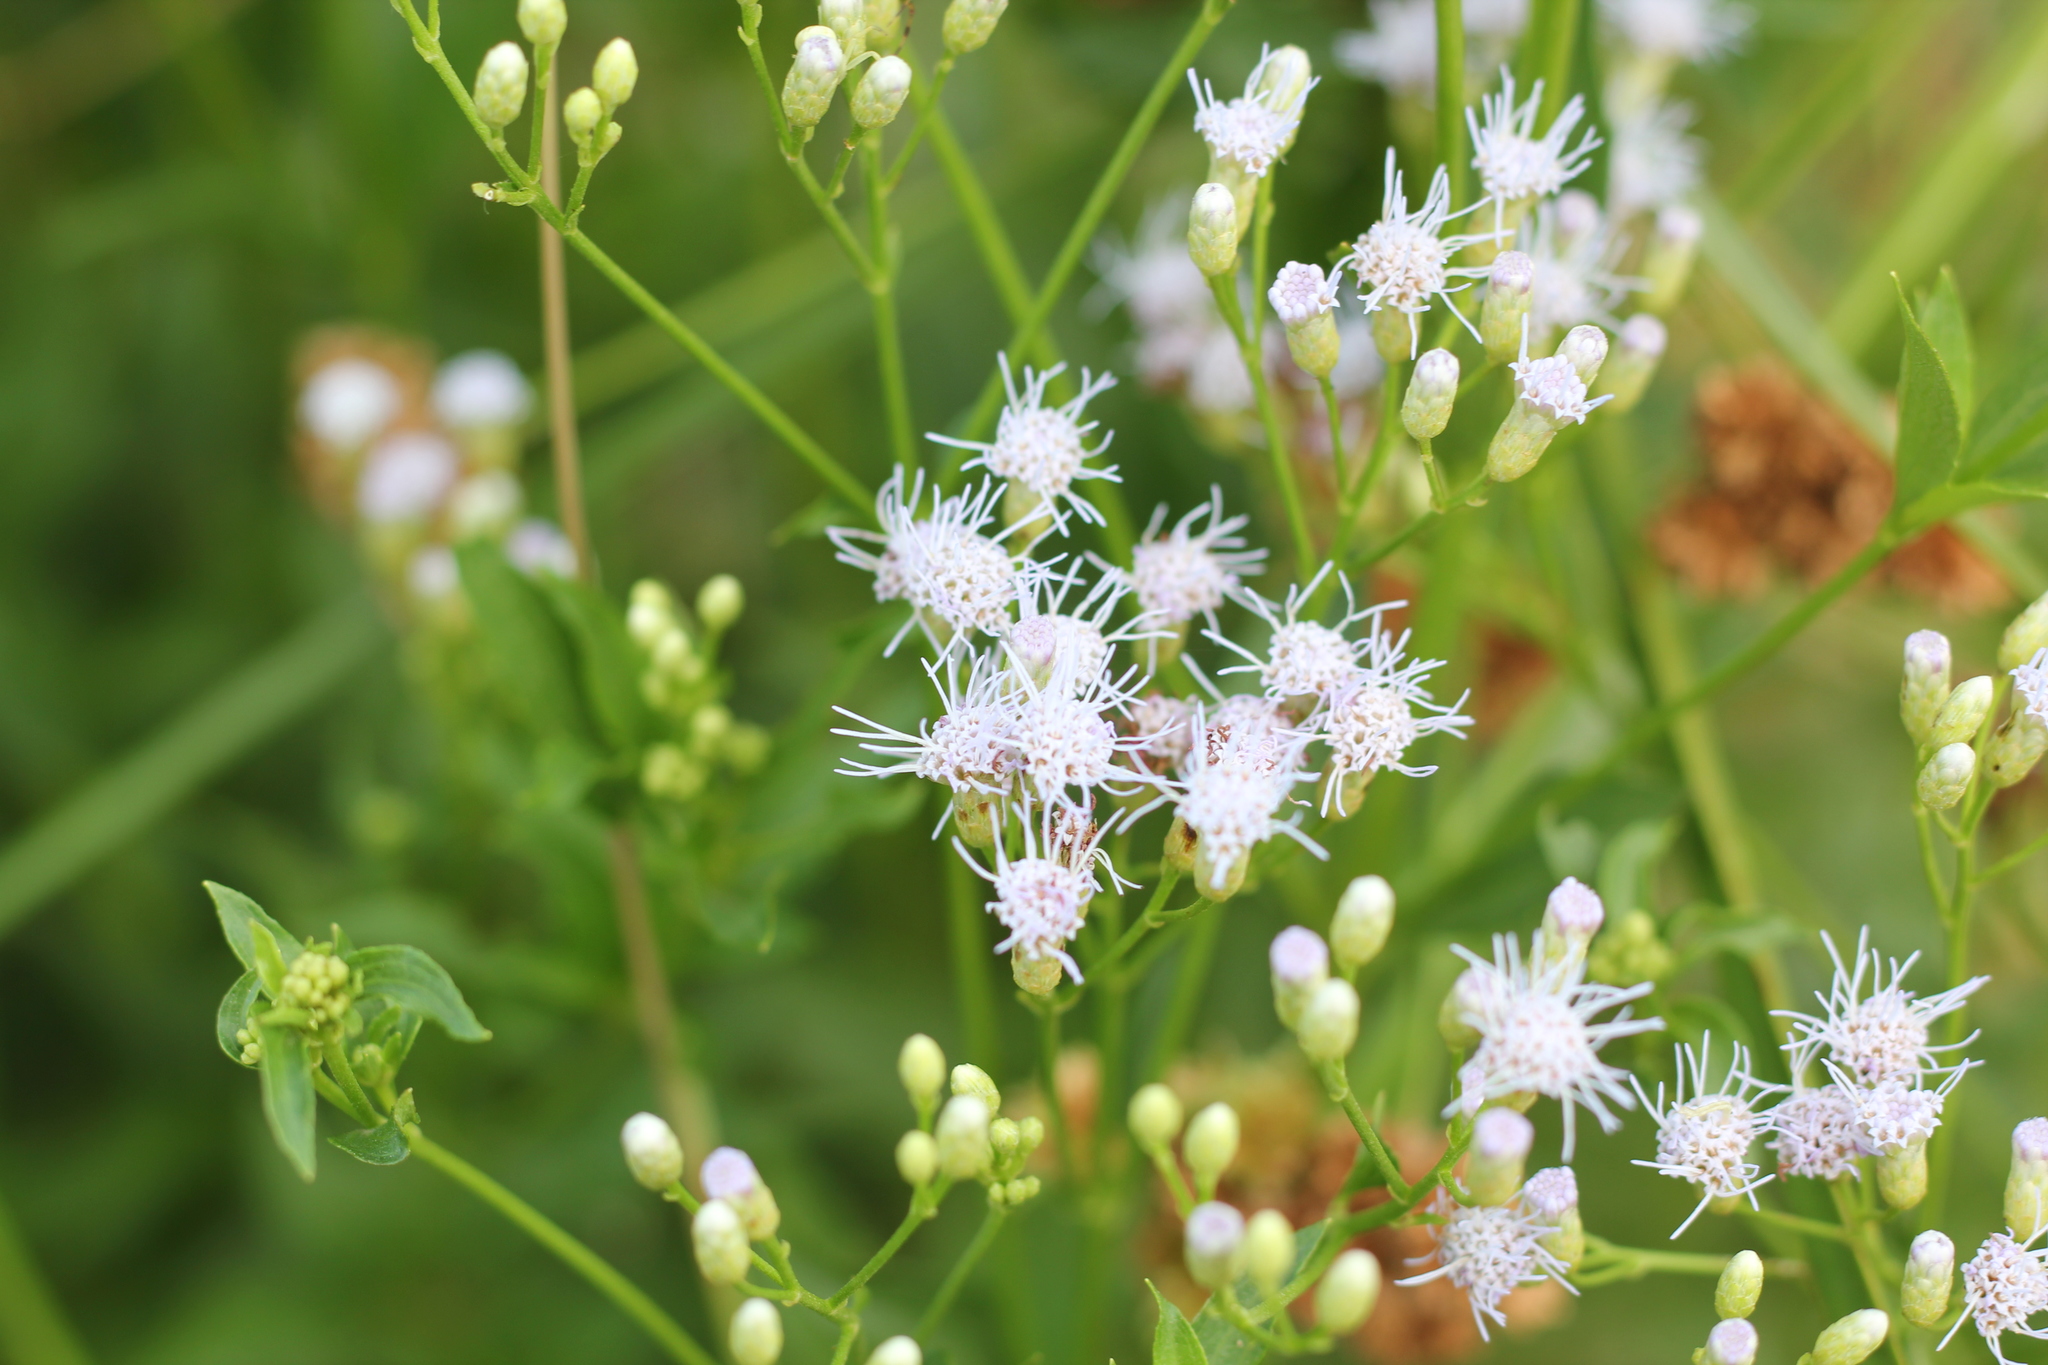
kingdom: Plantae
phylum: Tracheophyta
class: Magnoliopsida
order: Asterales
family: Asteraceae
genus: Chromolaena
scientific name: Chromolaena laevigata
